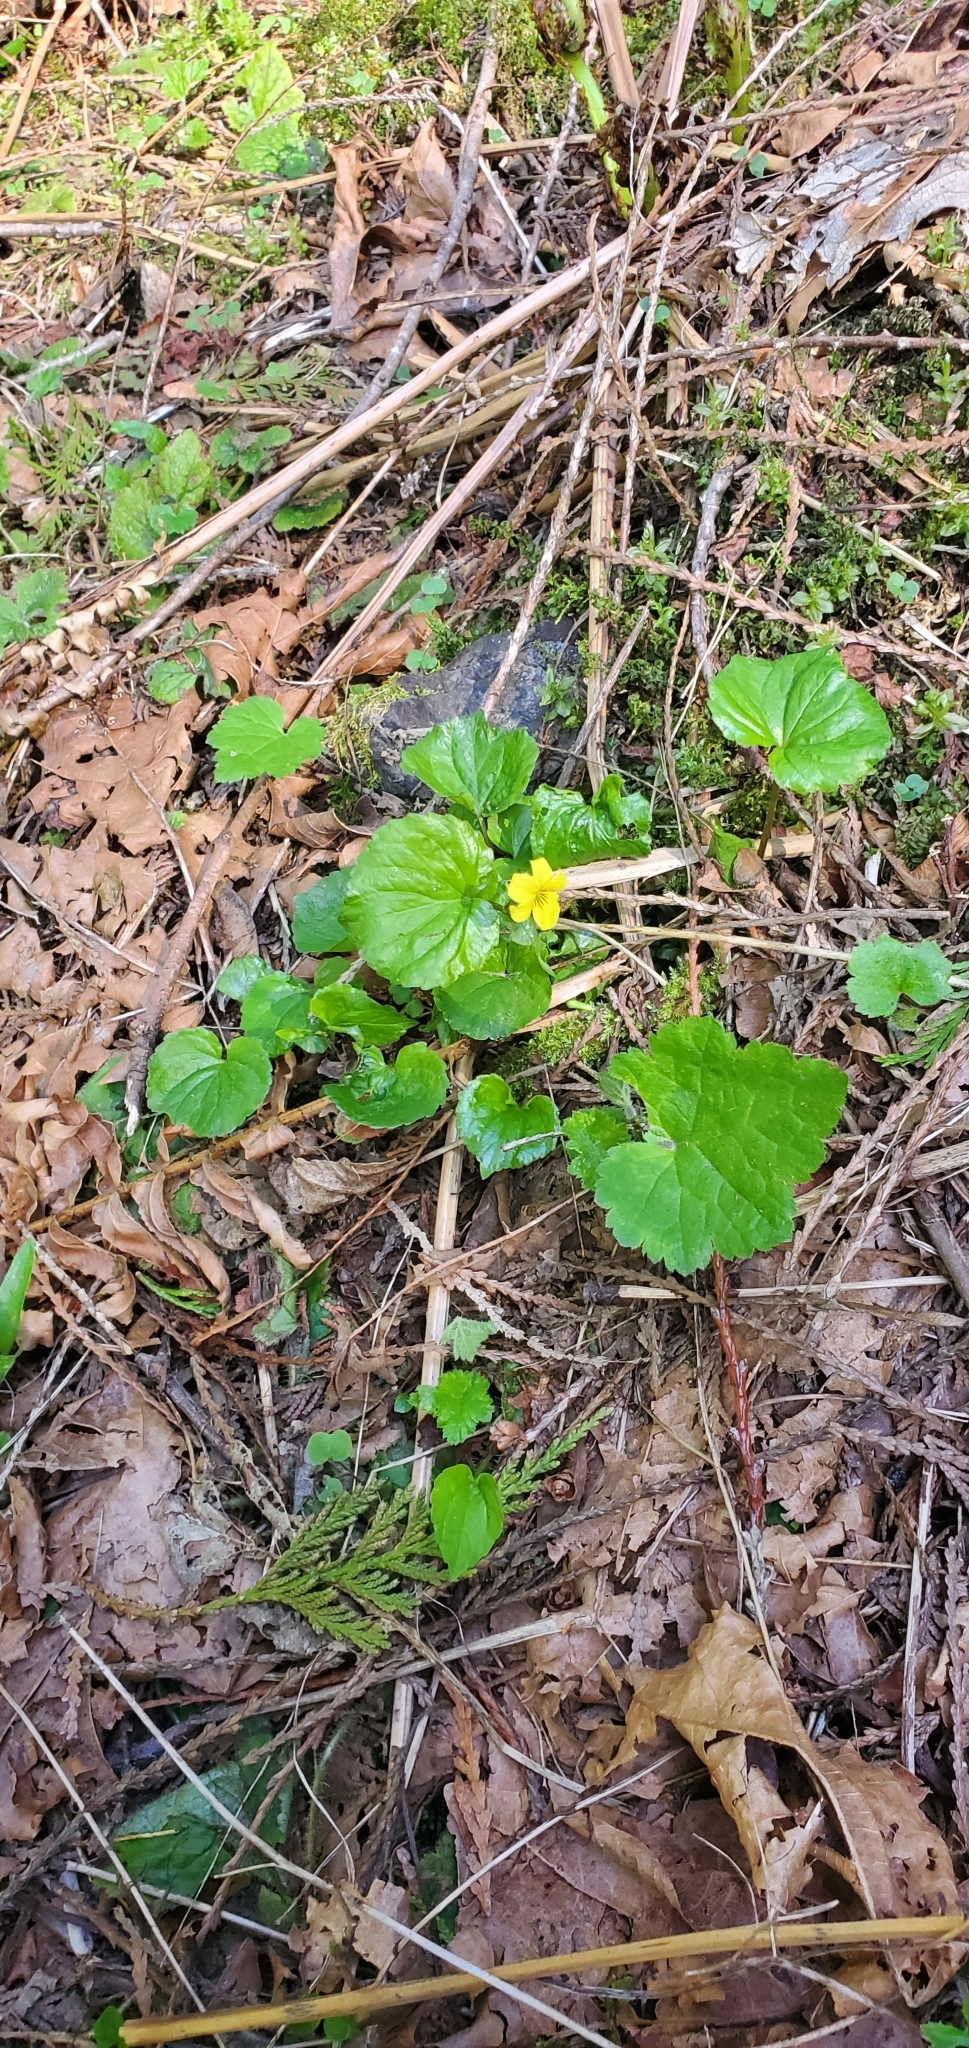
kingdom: Plantae
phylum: Tracheophyta
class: Magnoliopsida
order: Malpighiales
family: Violaceae
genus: Viola
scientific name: Viola glabella
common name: Stream violet
